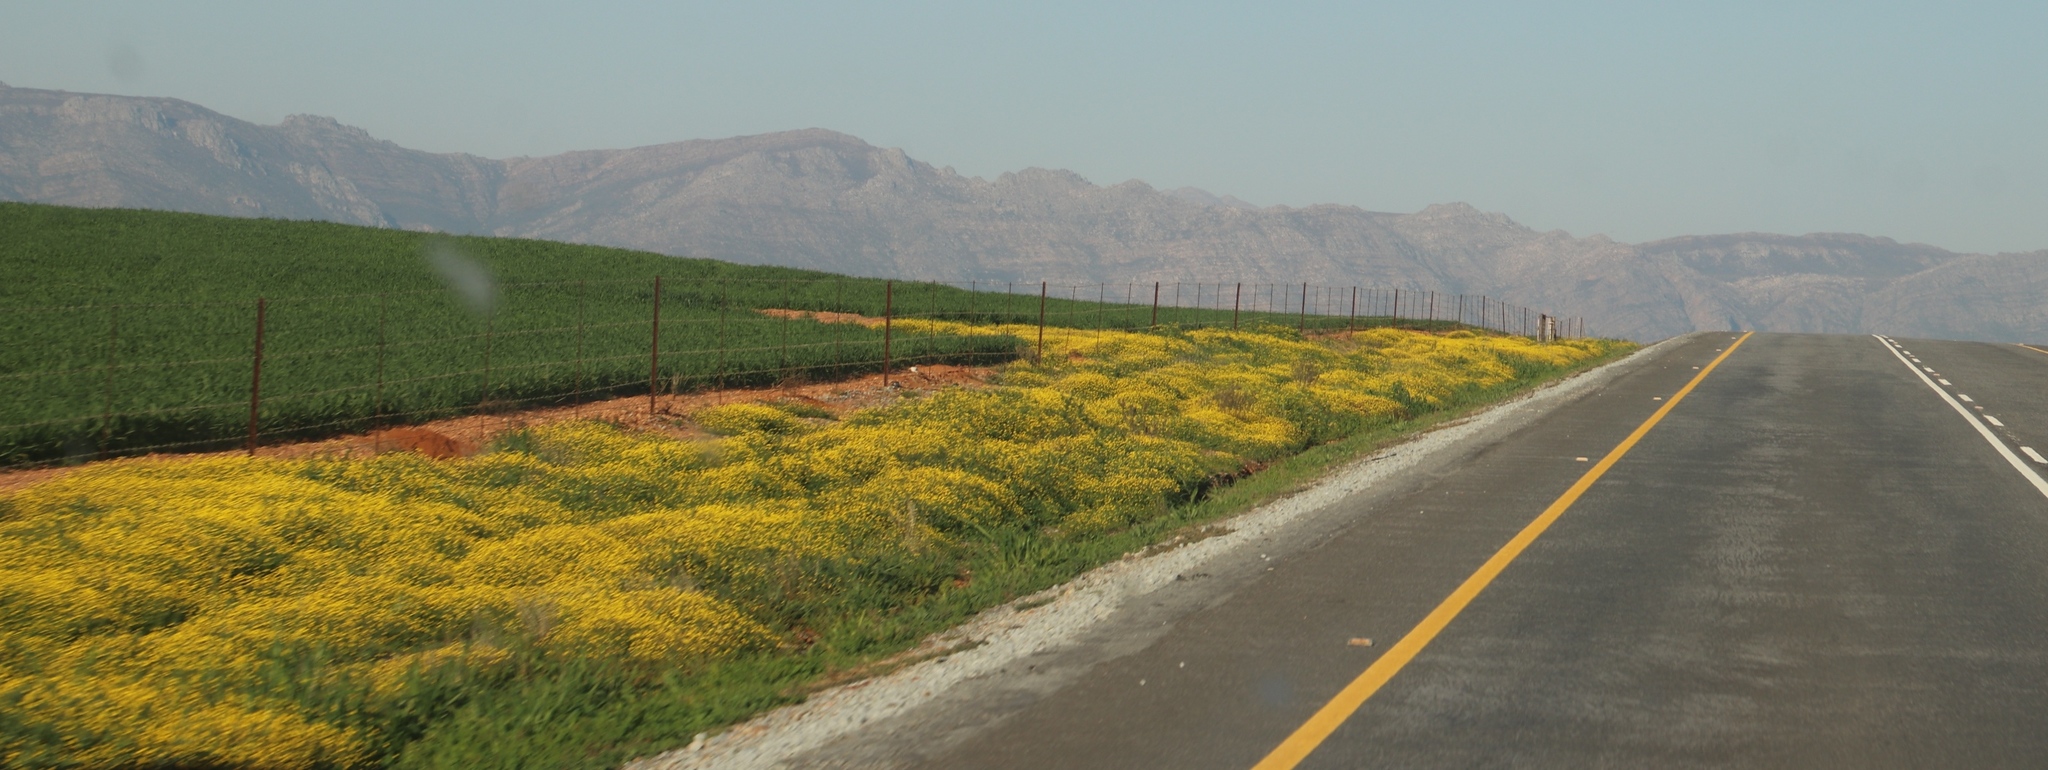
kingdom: Plantae
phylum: Tracheophyta
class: Magnoliopsida
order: Asterales
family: Asteraceae
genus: Cotula
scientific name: Cotula pruinosa
